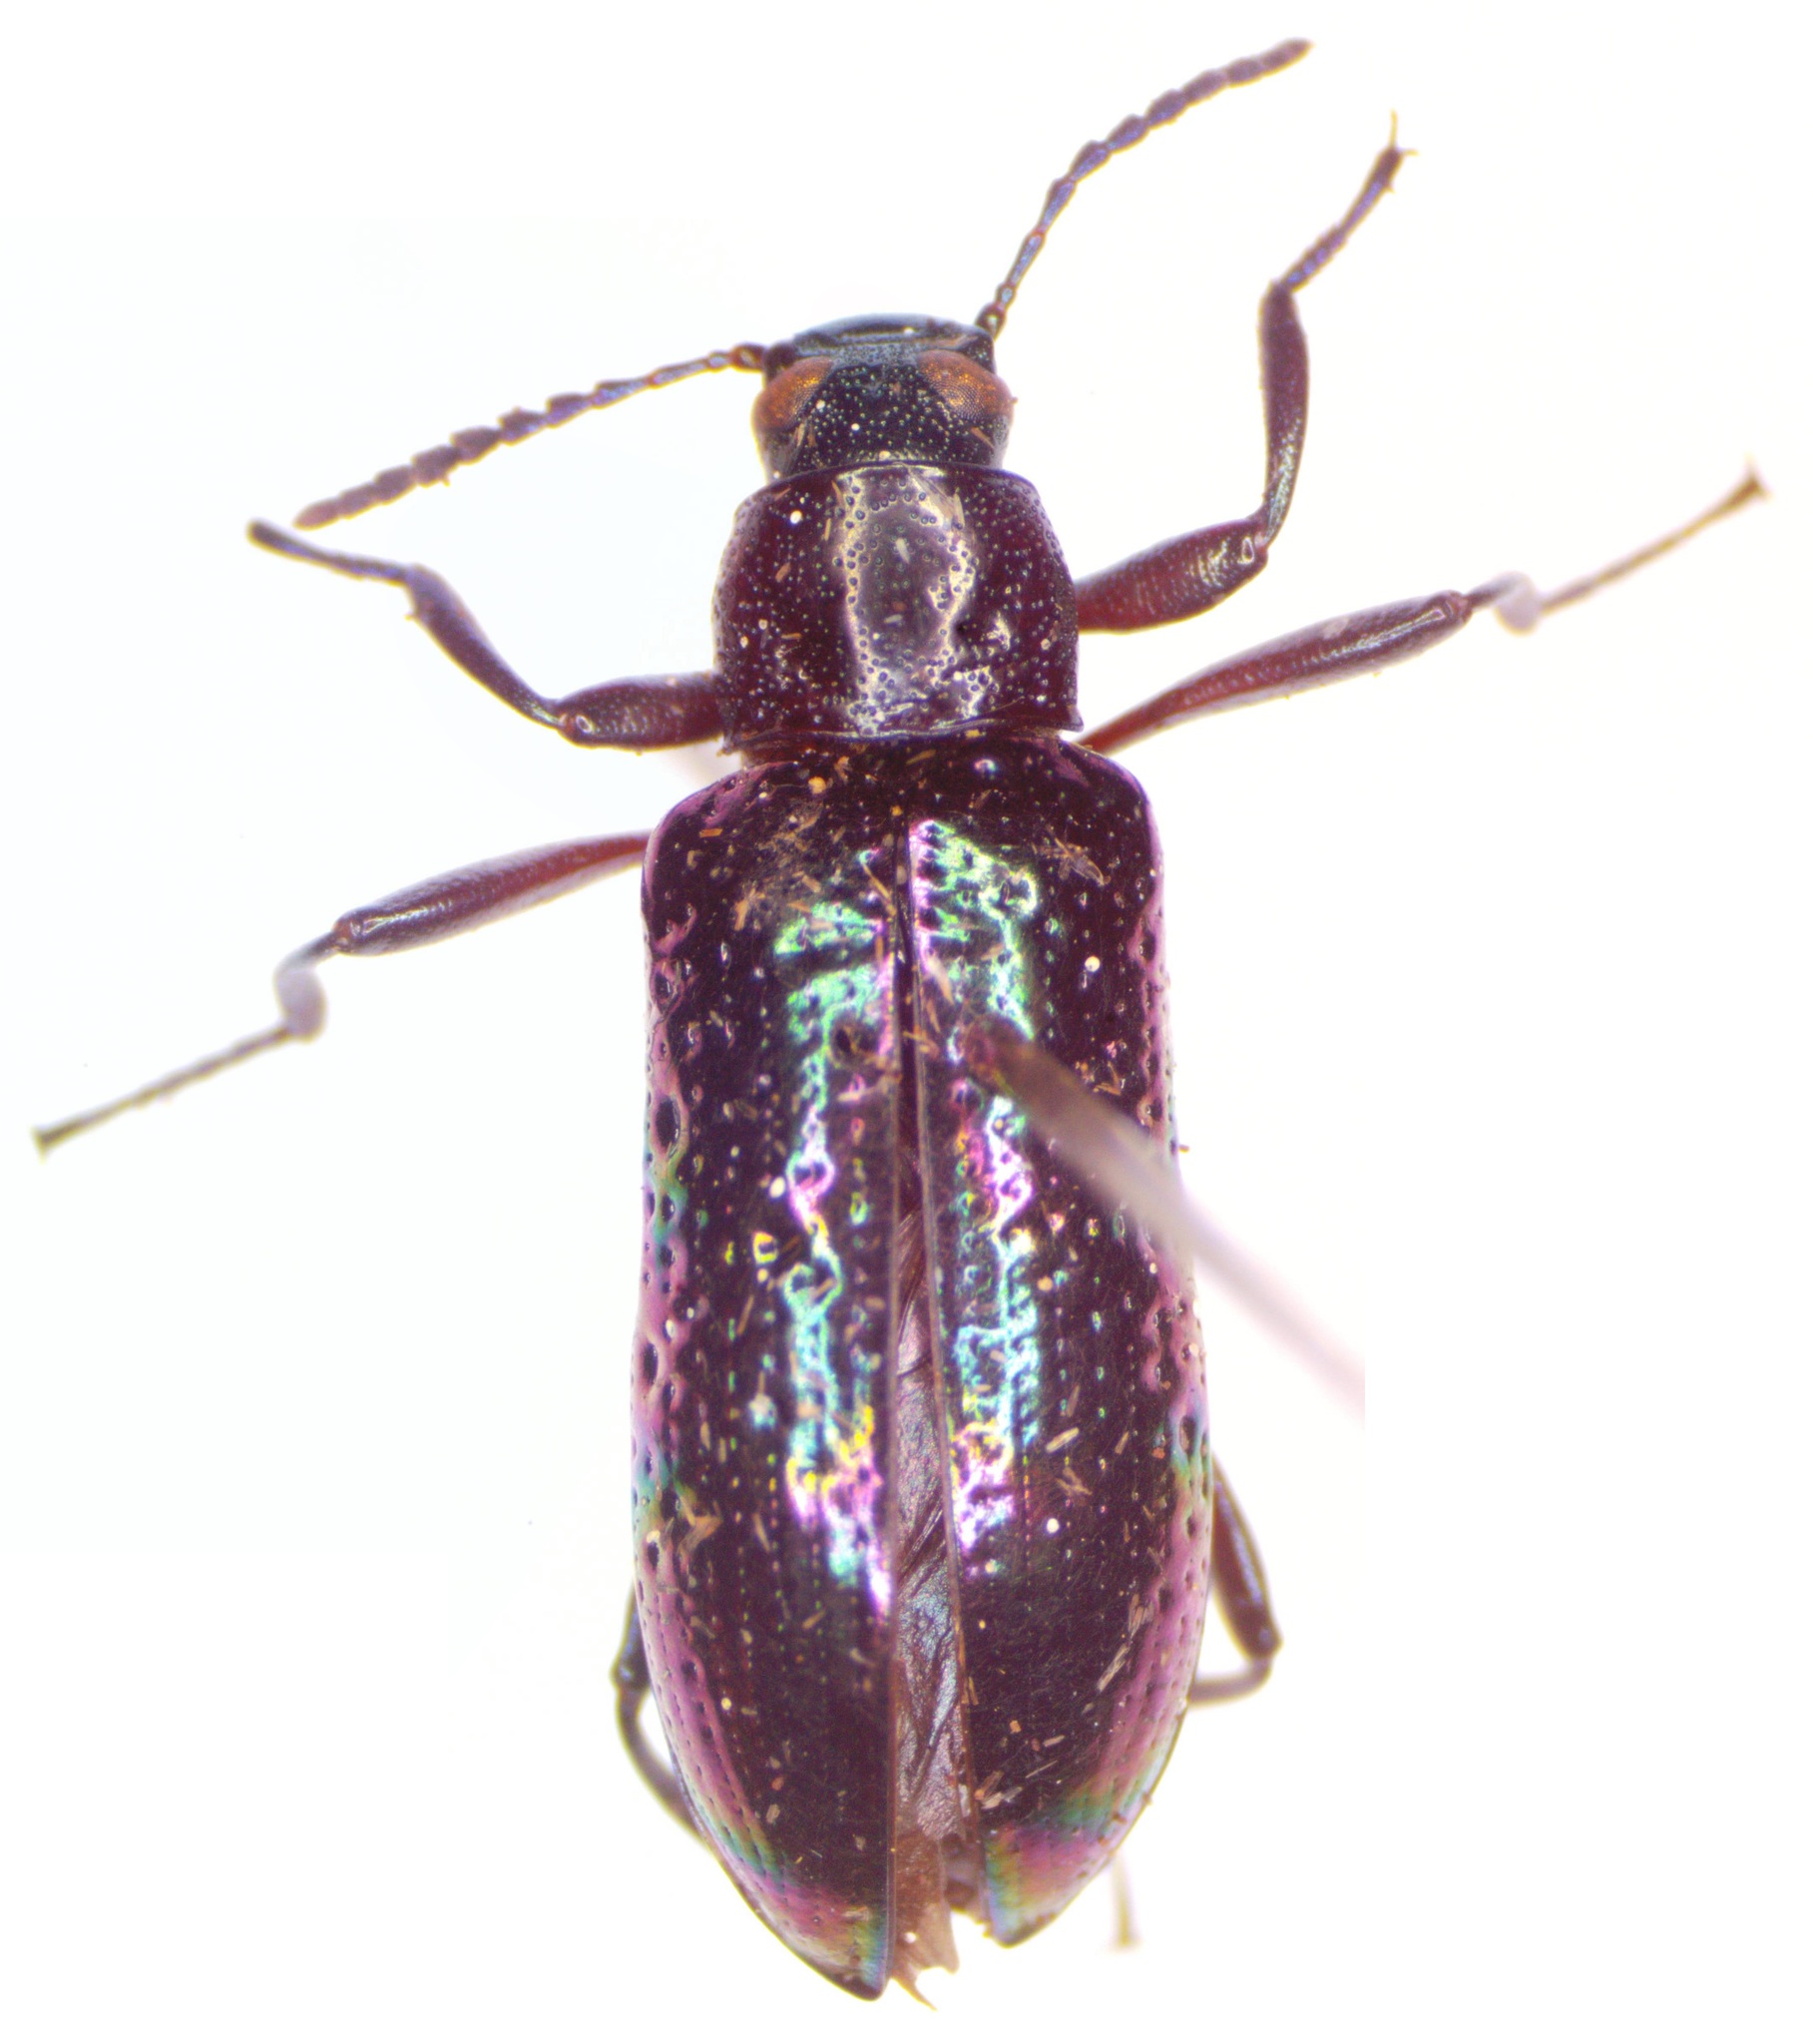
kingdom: Animalia
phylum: Arthropoda
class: Insecta
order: Coleoptera
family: Tenebrionidae
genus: Strongylium
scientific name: Strongylium ignitum
